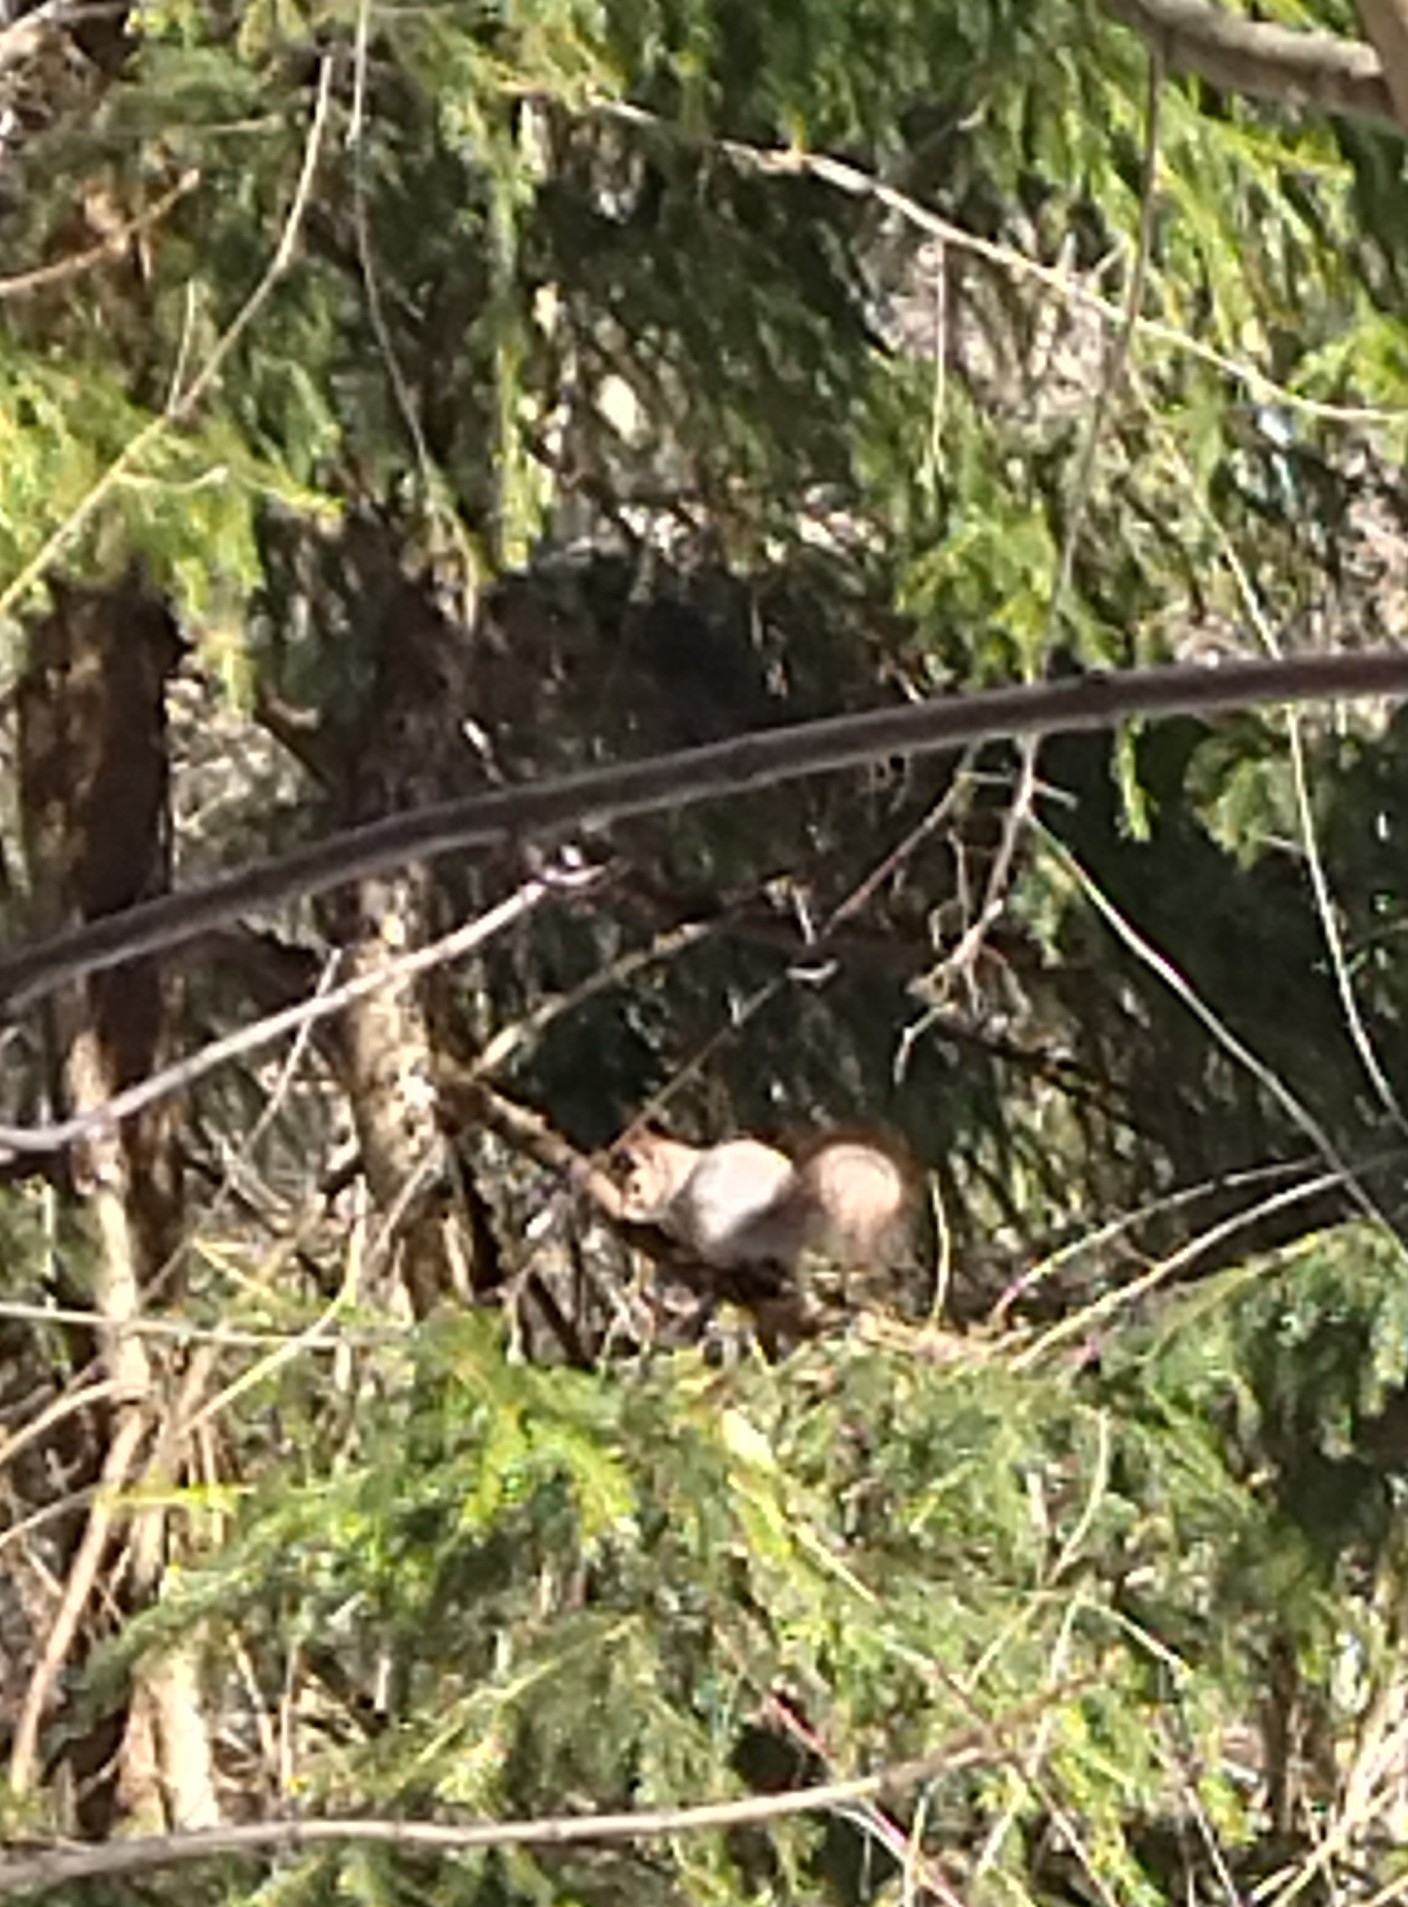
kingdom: Animalia
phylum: Chordata
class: Mammalia
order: Rodentia
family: Sciuridae
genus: Sciurus
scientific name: Sciurus vulgaris
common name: Eurasian red squirrel
